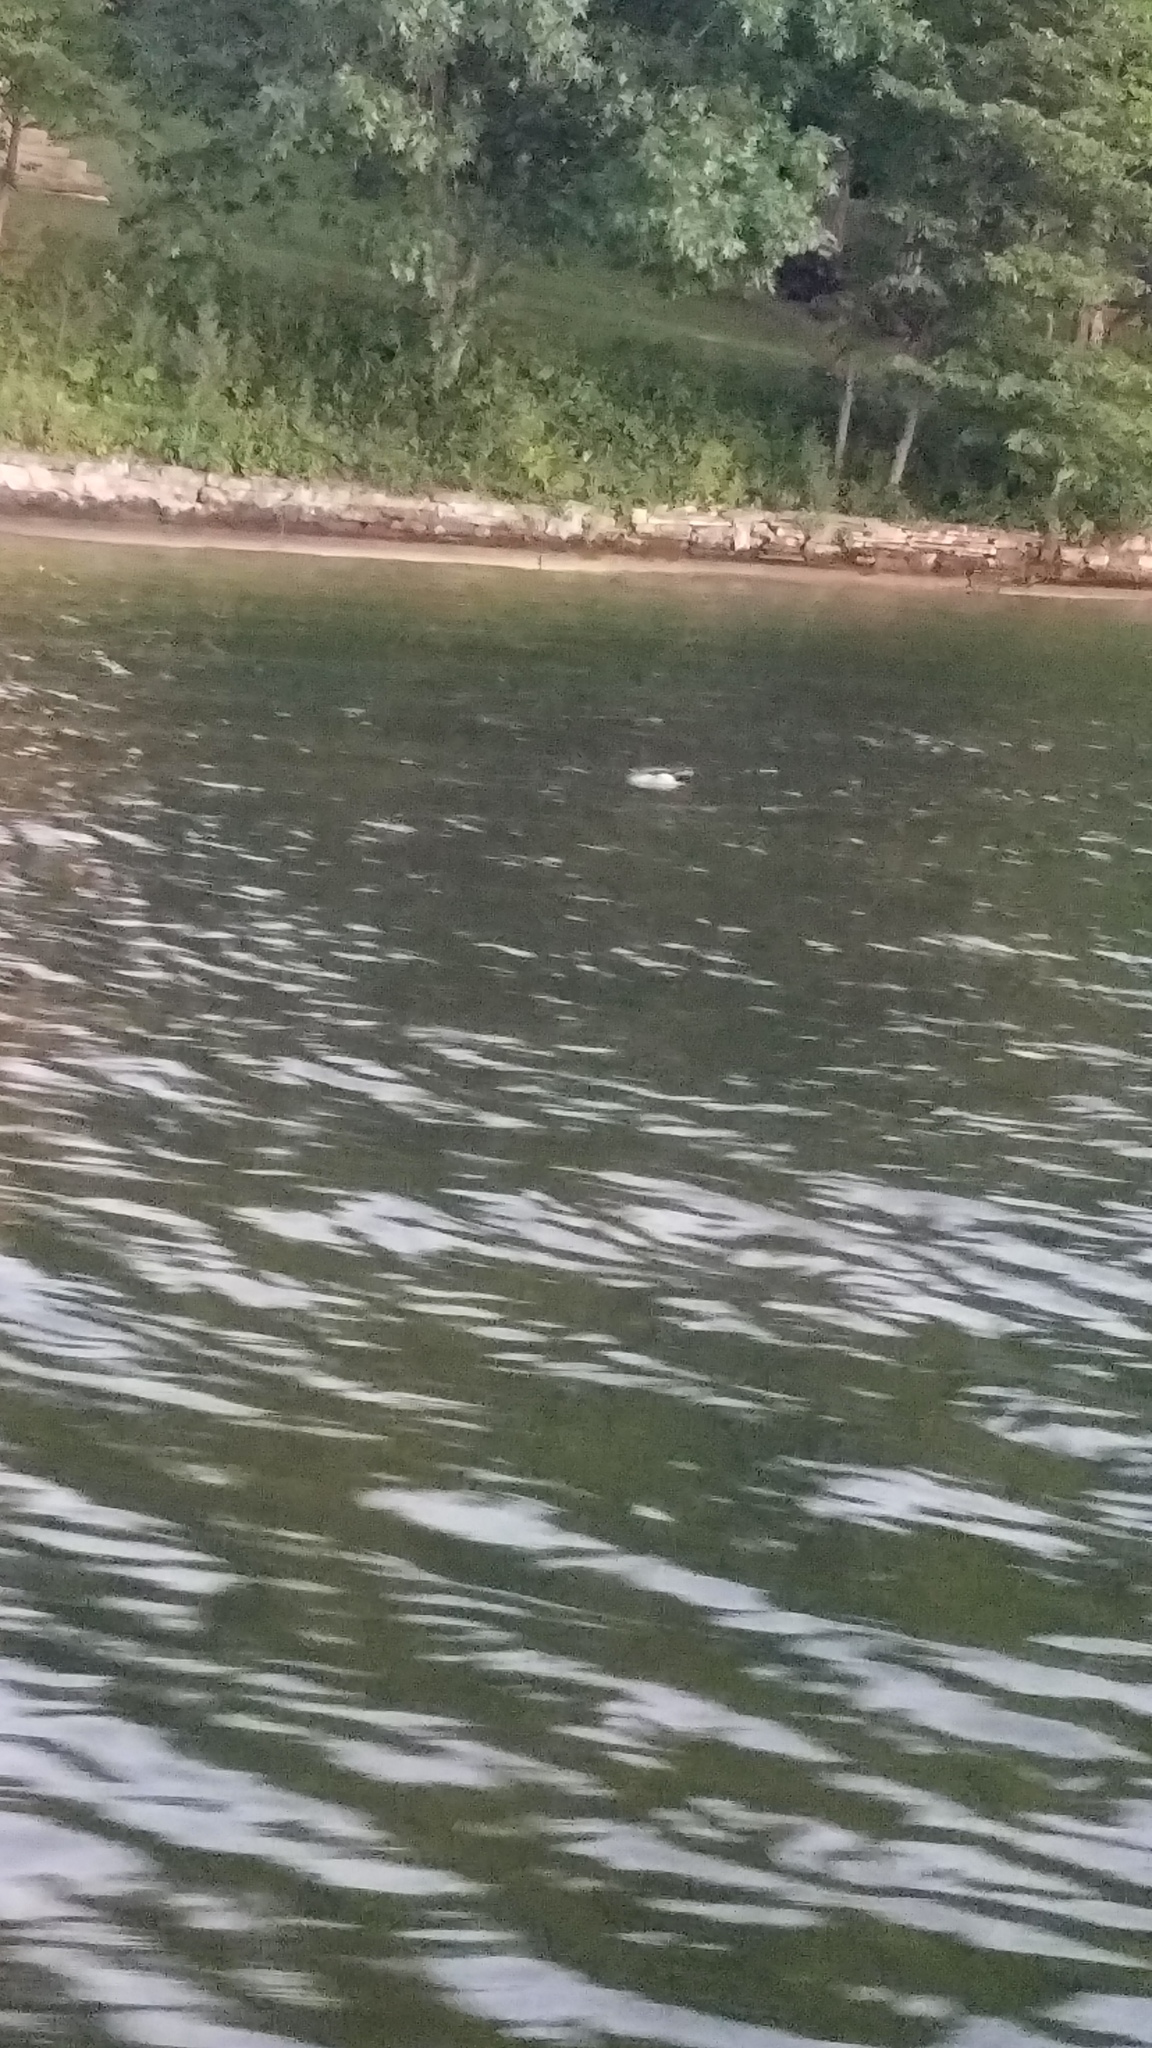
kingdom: Animalia
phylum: Chordata
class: Aves
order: Anseriformes
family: Anatidae
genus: Anas
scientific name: Anas platyrhynchos
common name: Mallard
